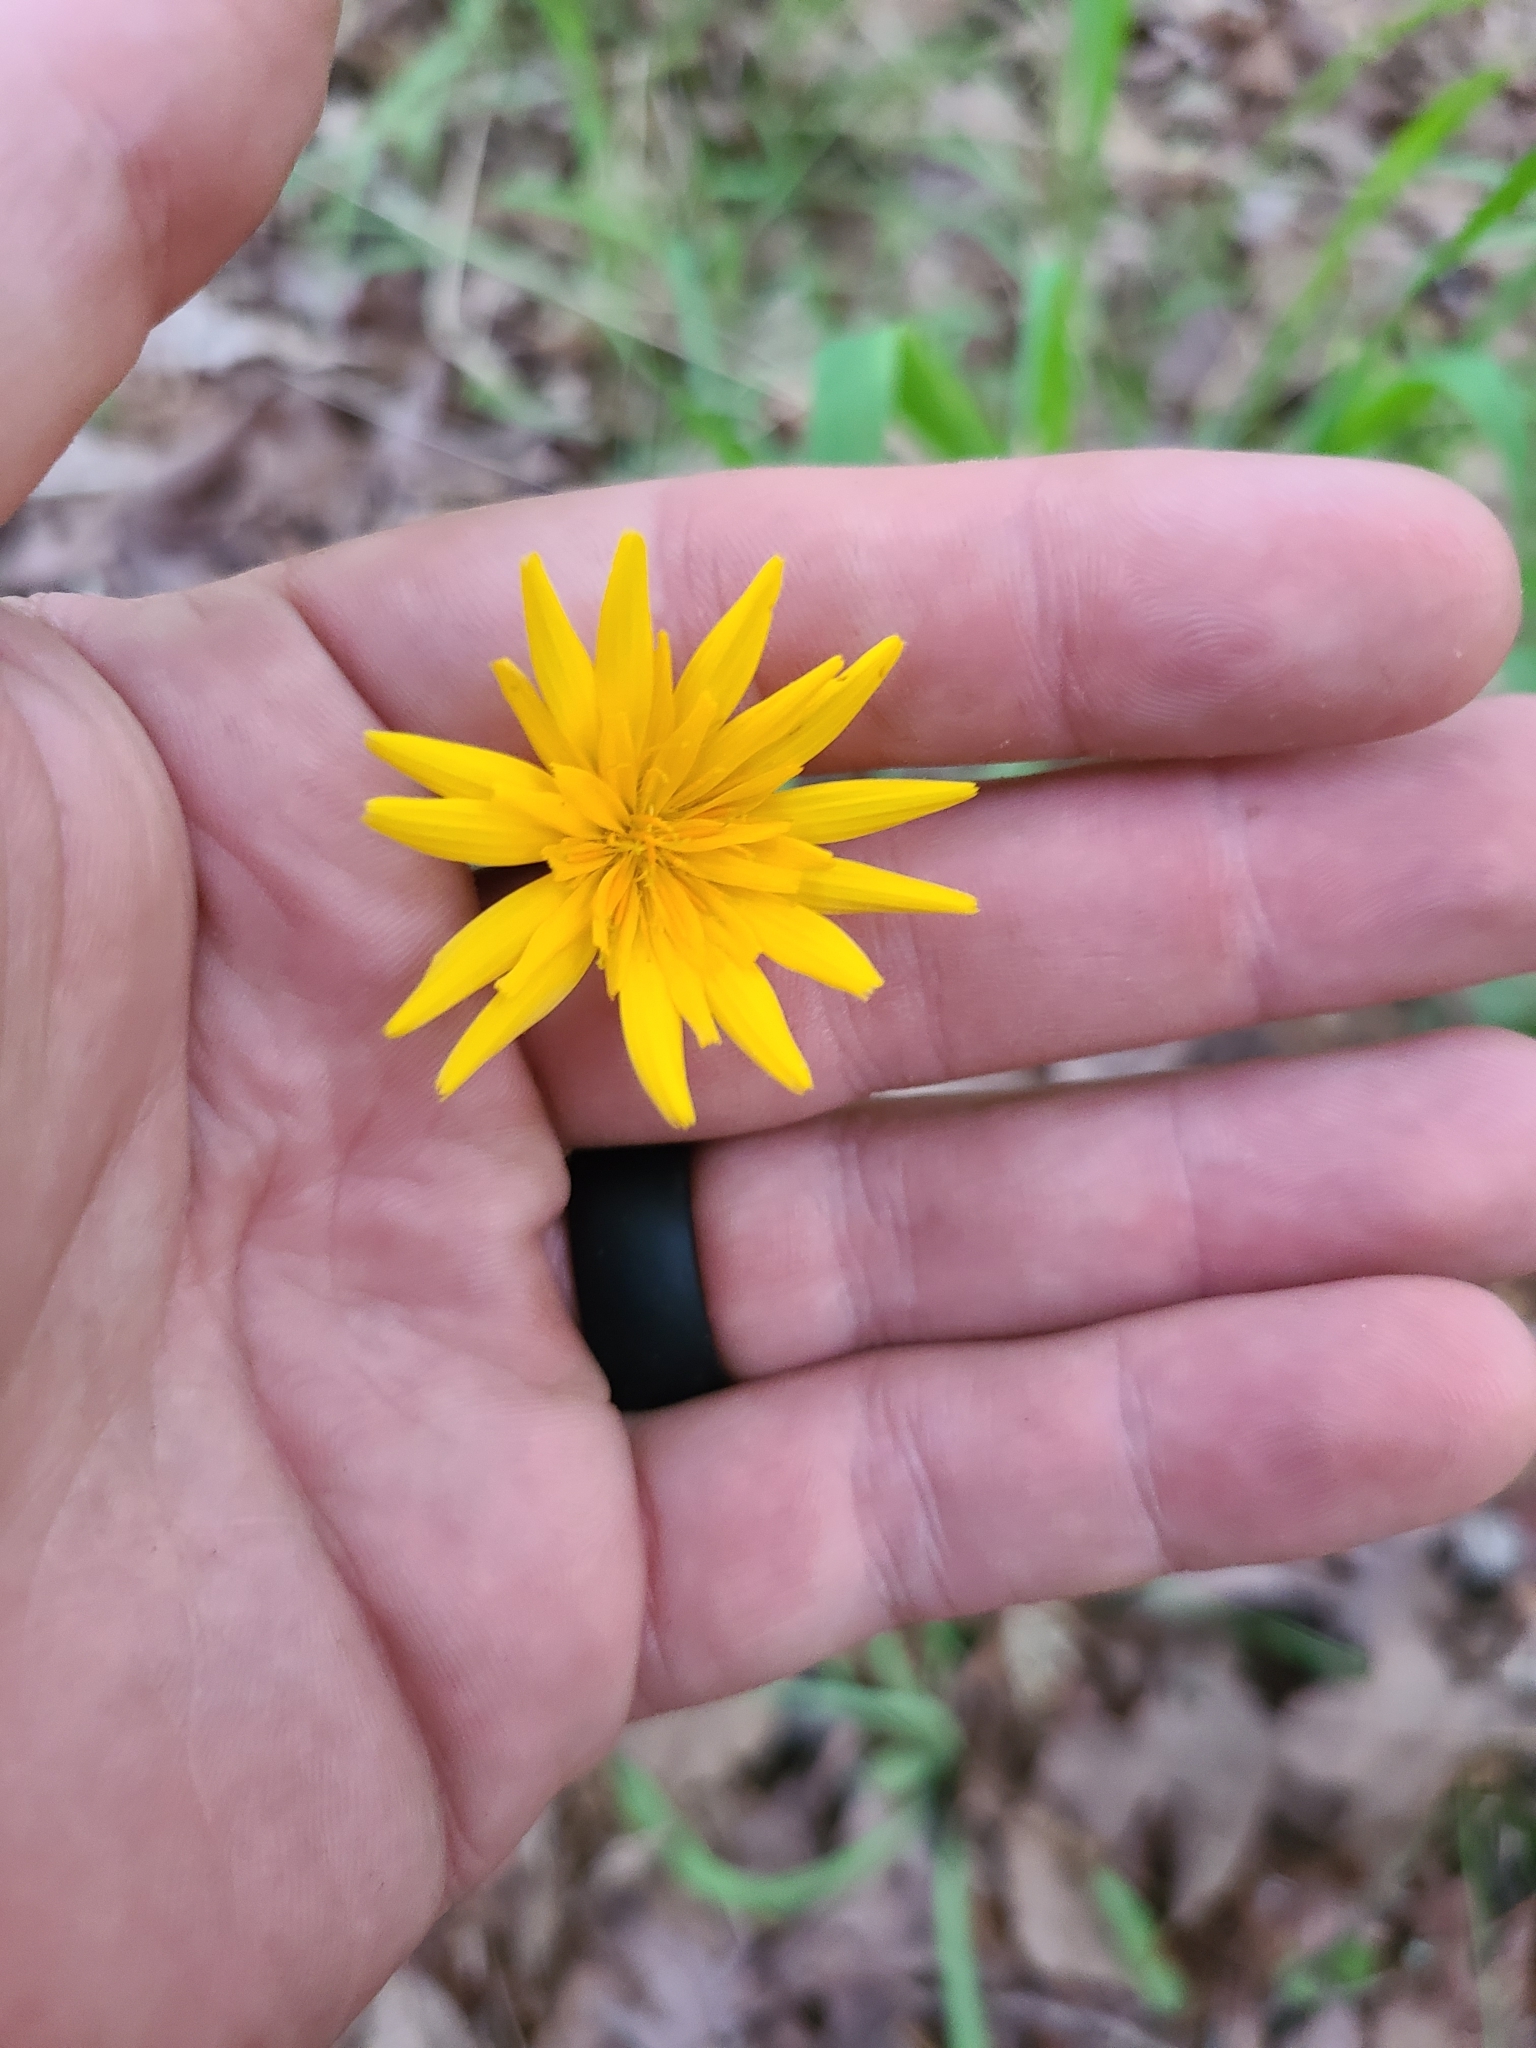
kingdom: Plantae
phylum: Tracheophyta
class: Magnoliopsida
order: Asterales
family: Asteraceae
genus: Krigia
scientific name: Krigia dandelion
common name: Colonial dwarf-dandelion
